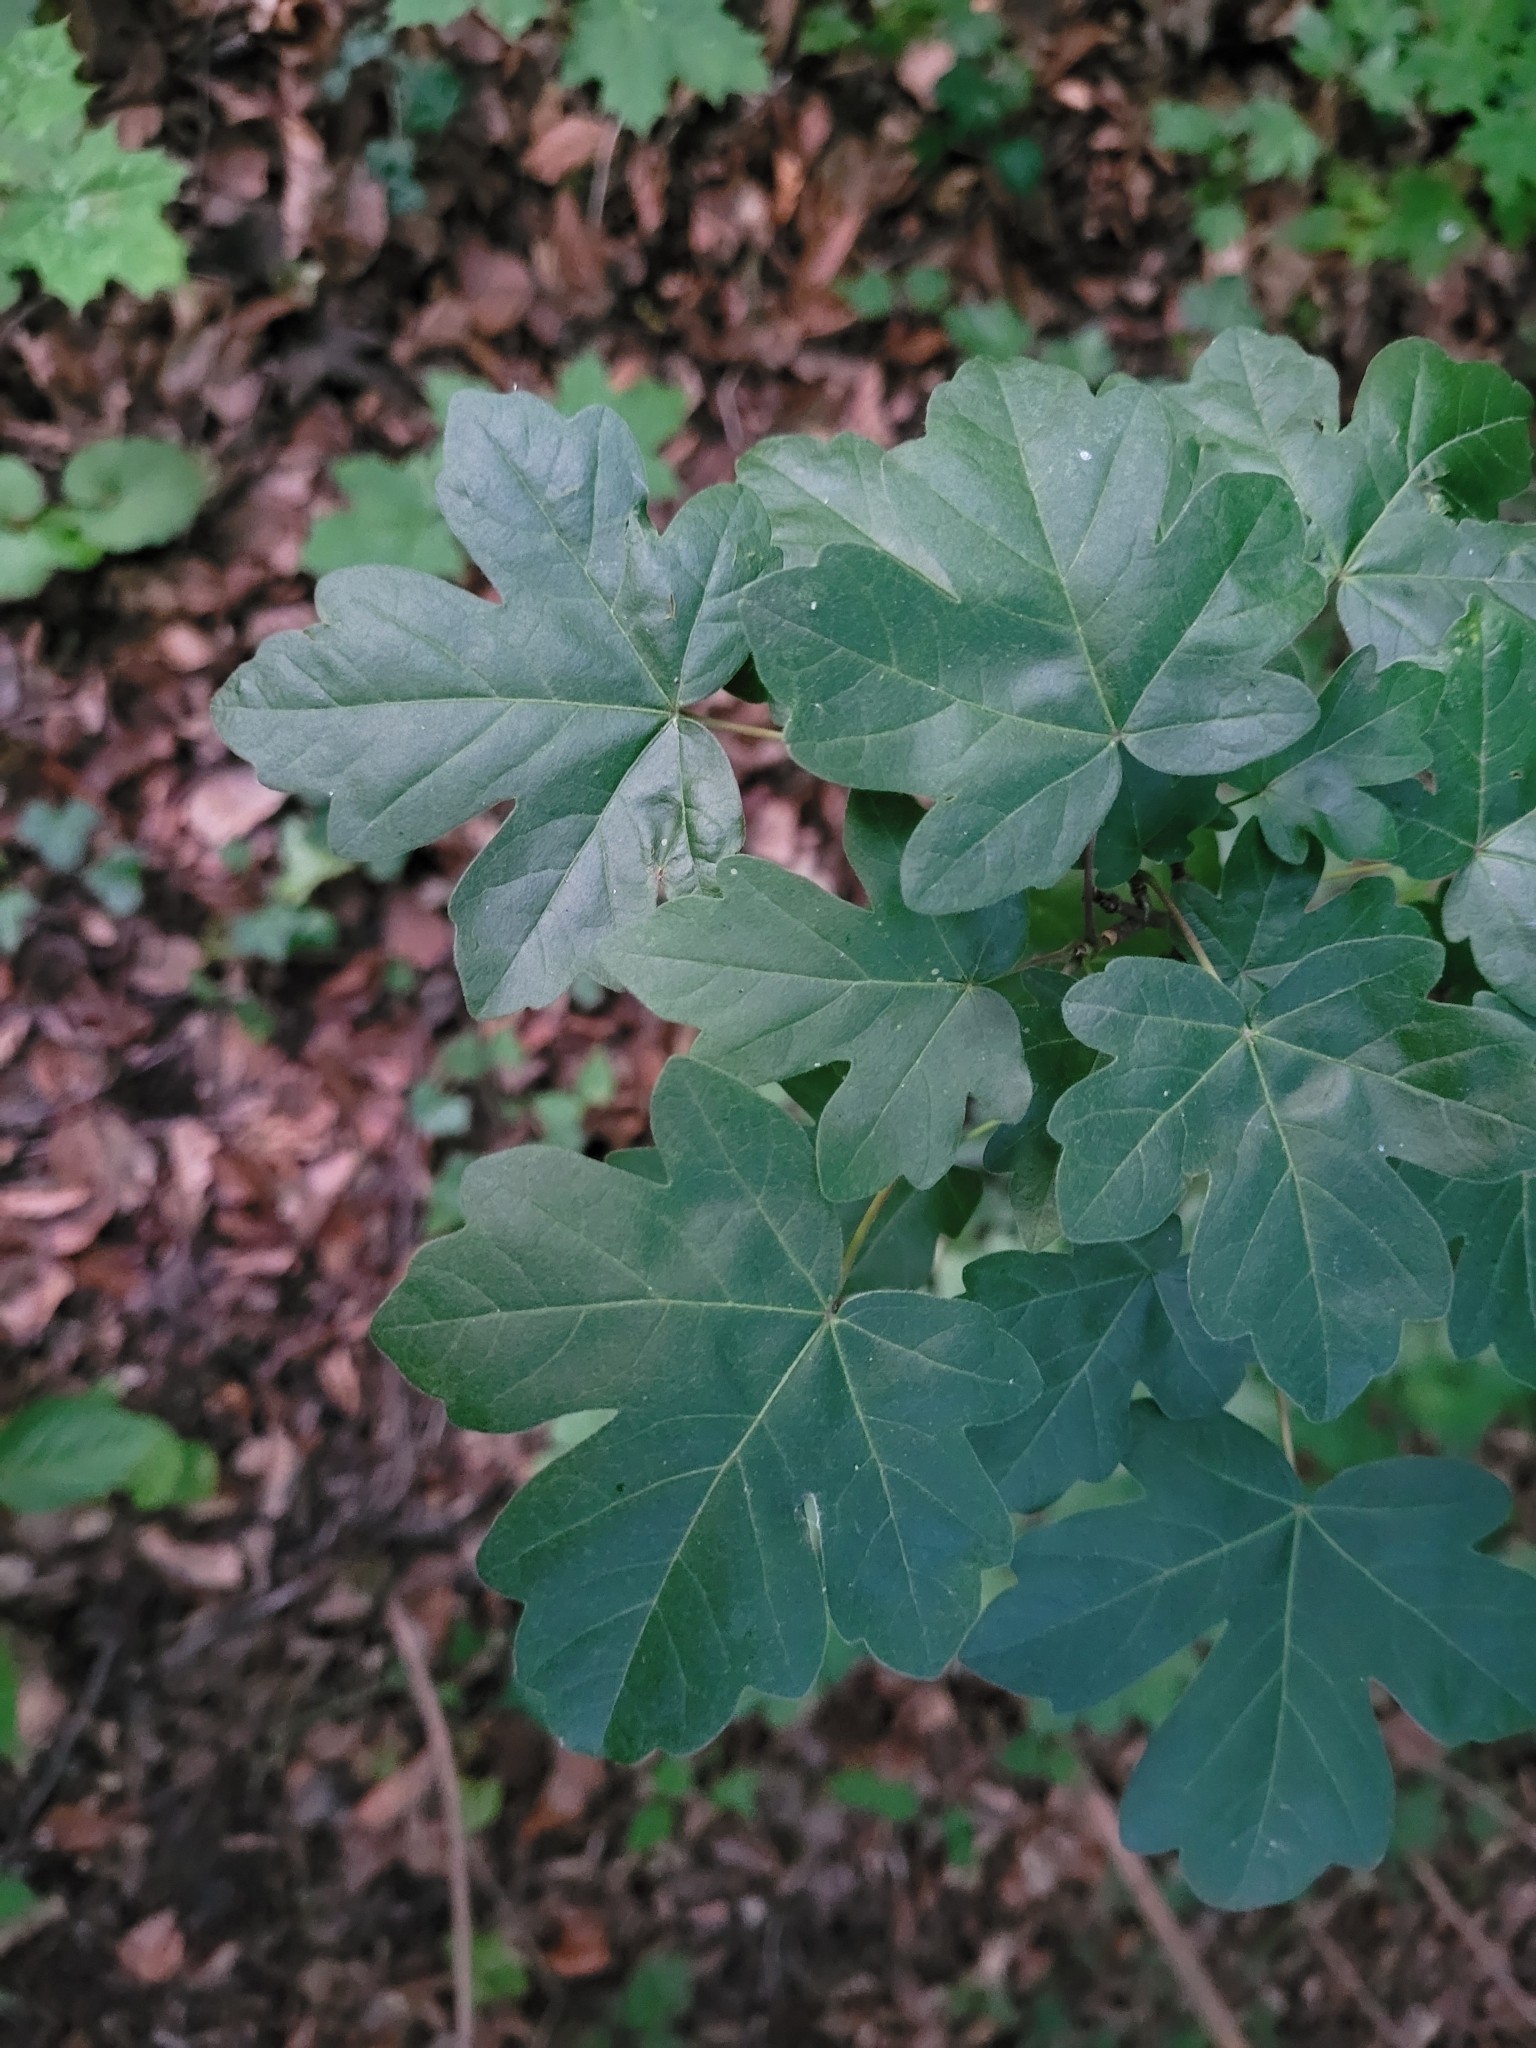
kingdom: Plantae
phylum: Tracheophyta
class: Magnoliopsida
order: Sapindales
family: Sapindaceae
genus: Acer
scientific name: Acer campestre
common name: Field maple
